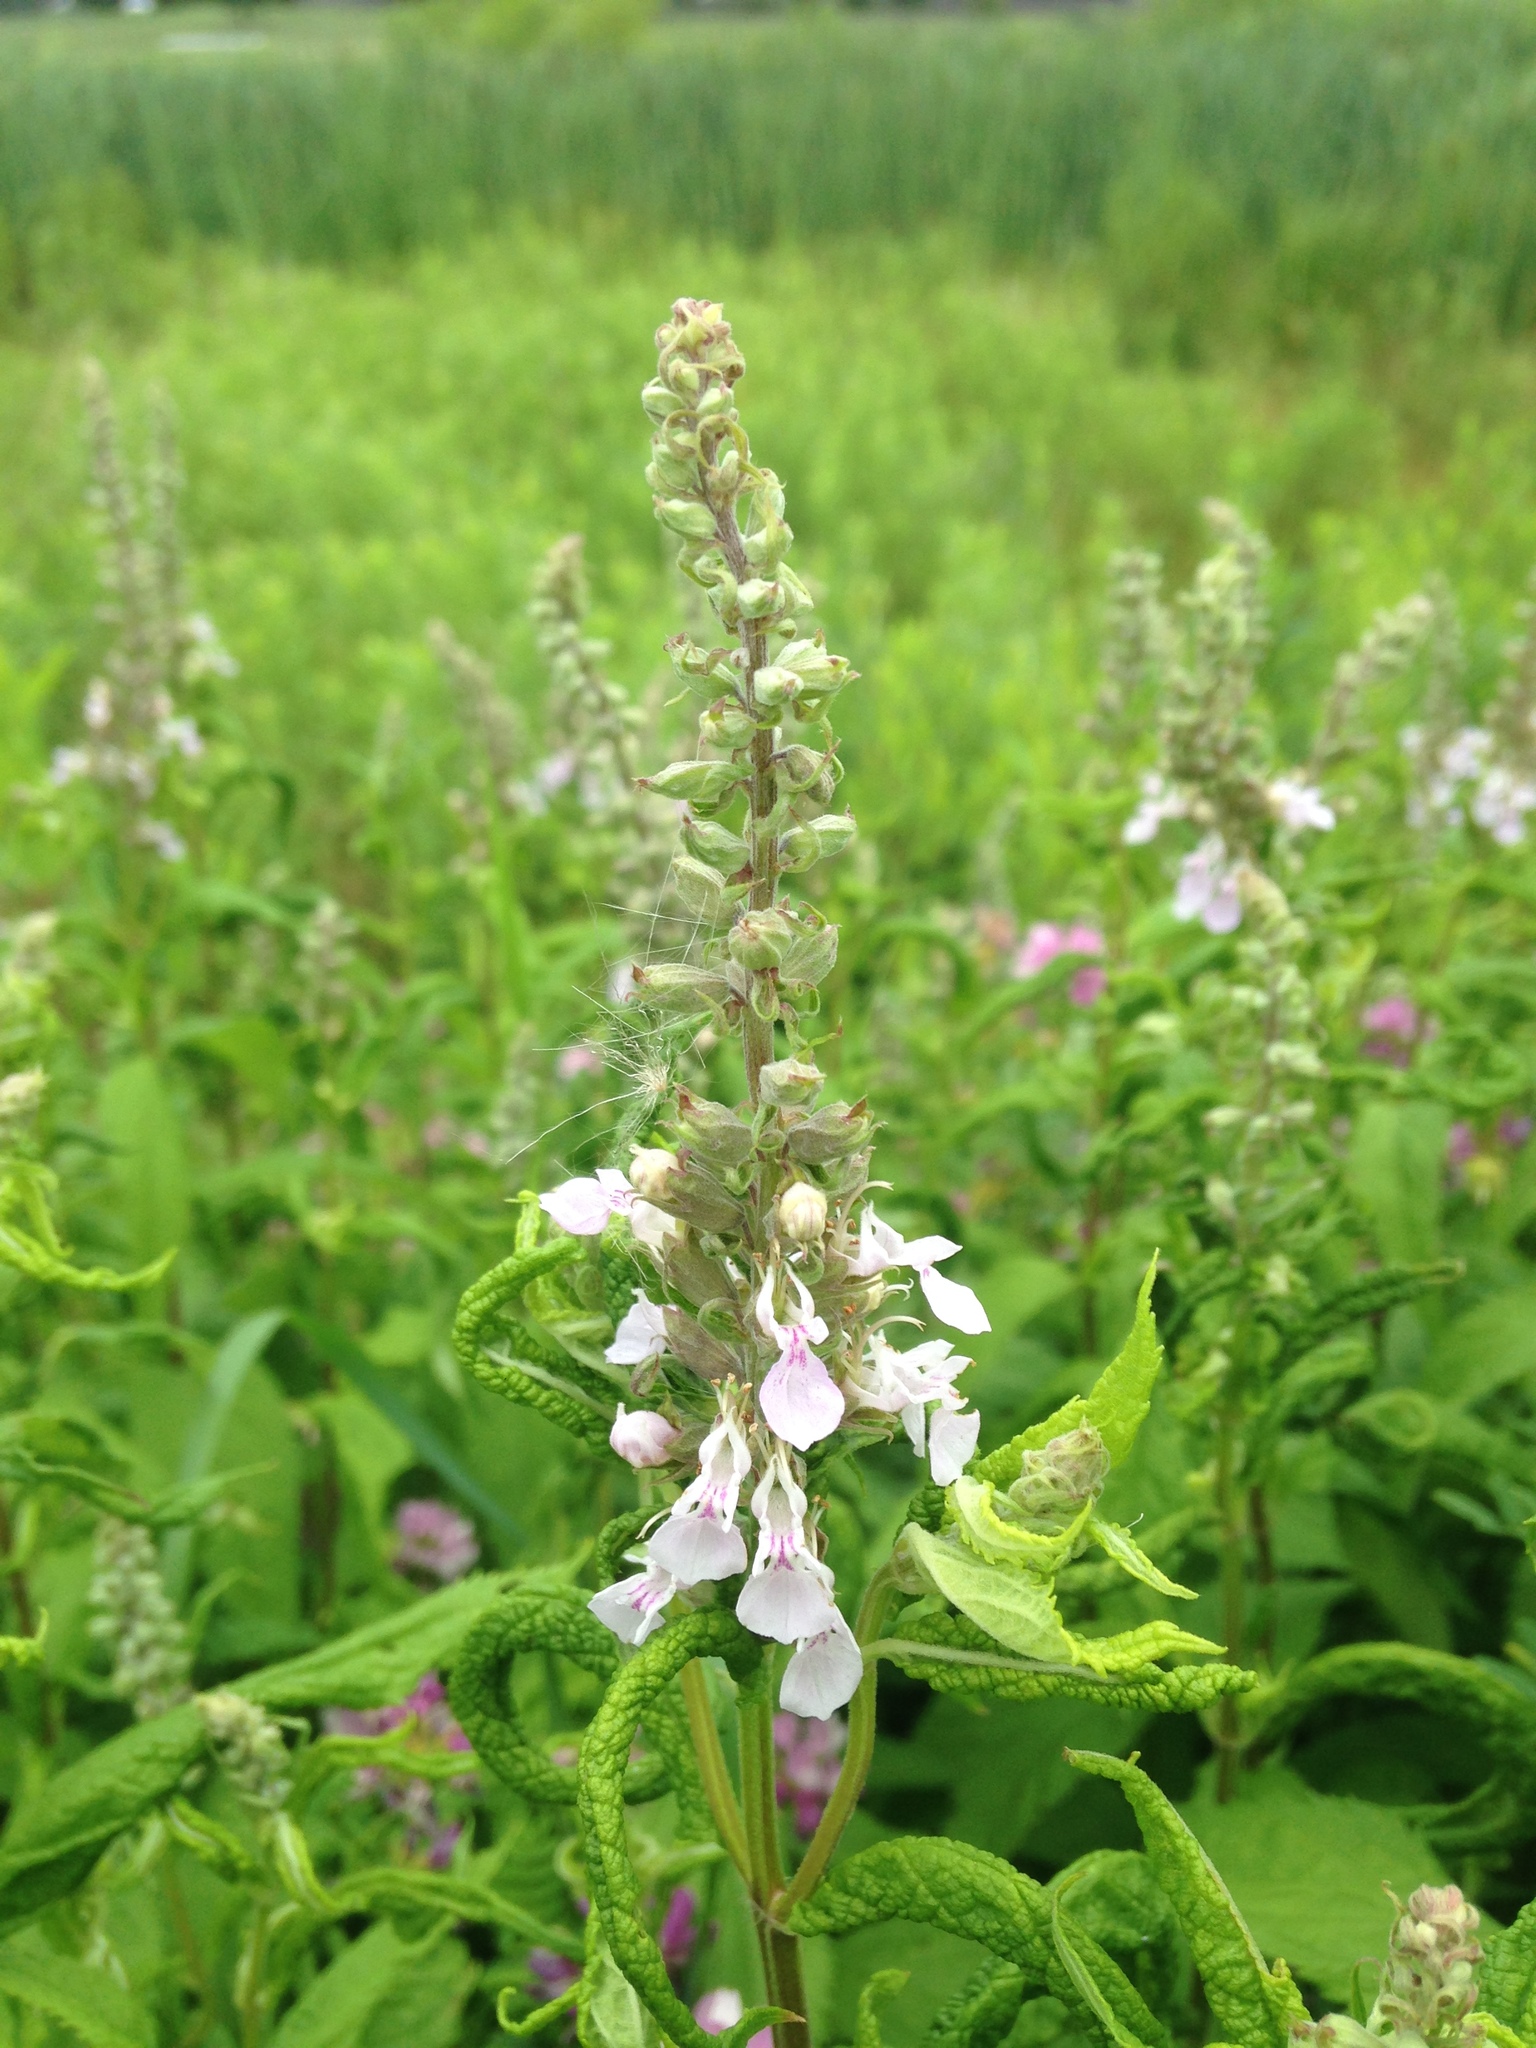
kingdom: Plantae
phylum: Tracheophyta
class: Magnoliopsida
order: Lamiales
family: Lamiaceae
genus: Teucrium
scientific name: Teucrium canadense
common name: American germander
